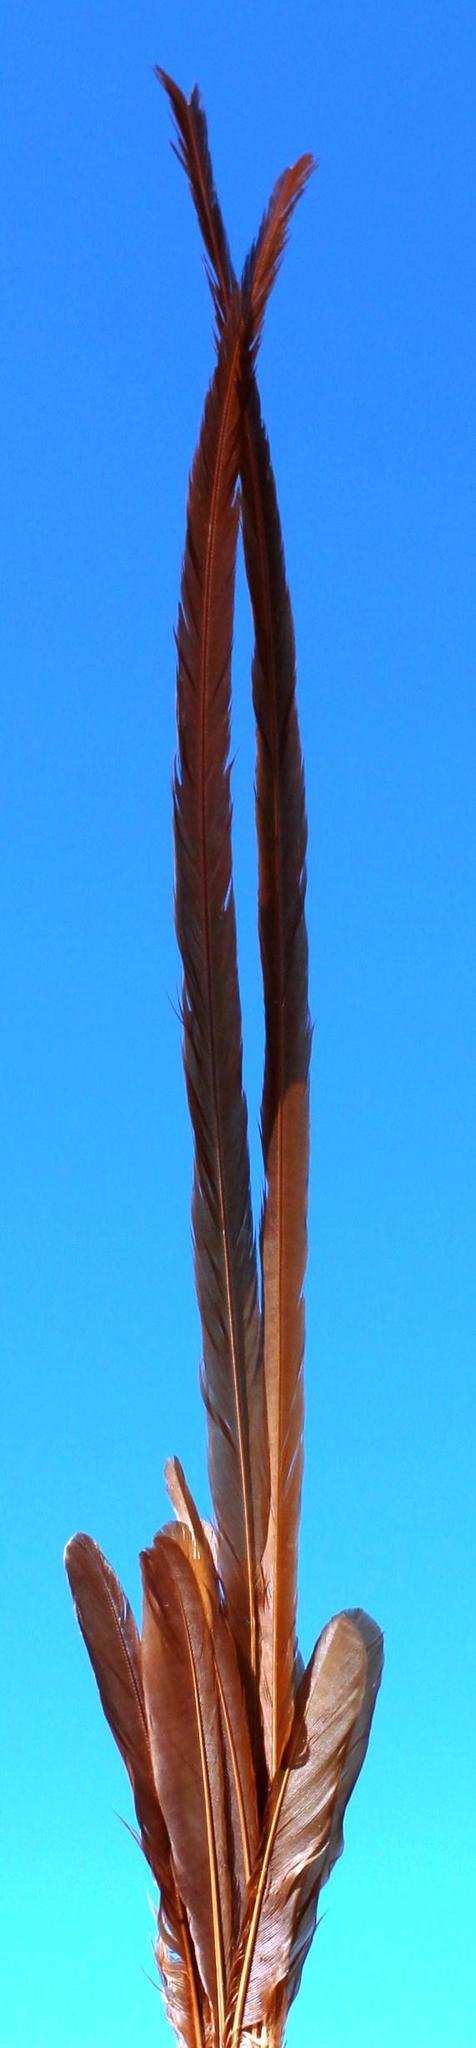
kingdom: Animalia
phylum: Chordata
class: Aves
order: Passeriformes
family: Monarchidae
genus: Terpsiphone
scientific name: Terpsiphone viridis
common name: African paradise flycatcher
